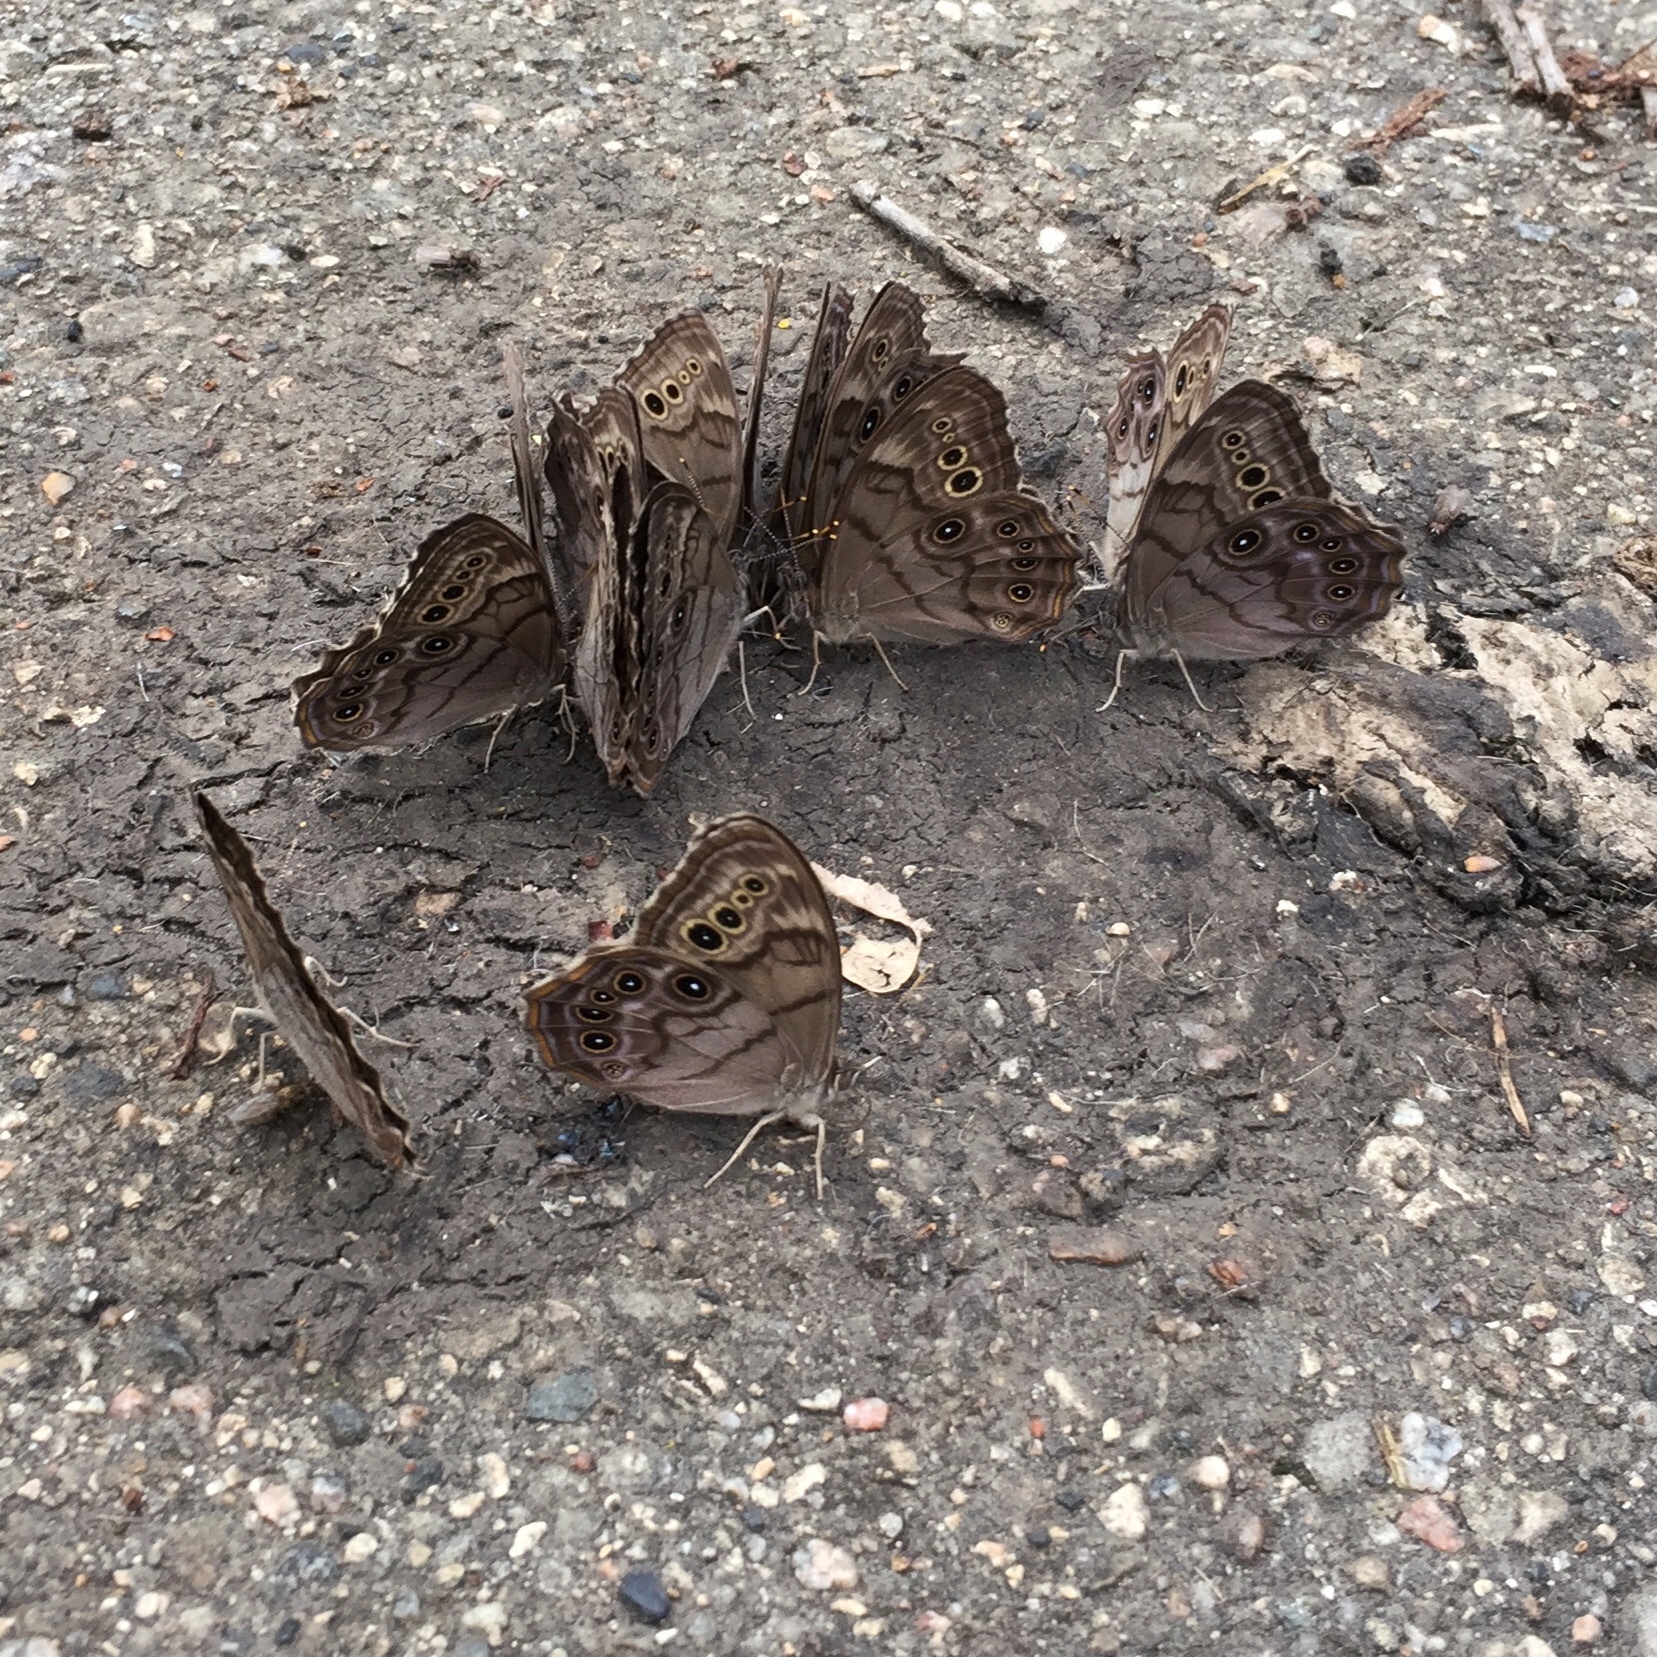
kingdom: Animalia
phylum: Arthropoda
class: Insecta
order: Lepidoptera
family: Nymphalidae
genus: Lethe
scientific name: Lethe anthedon
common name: Northern pearly-eye
